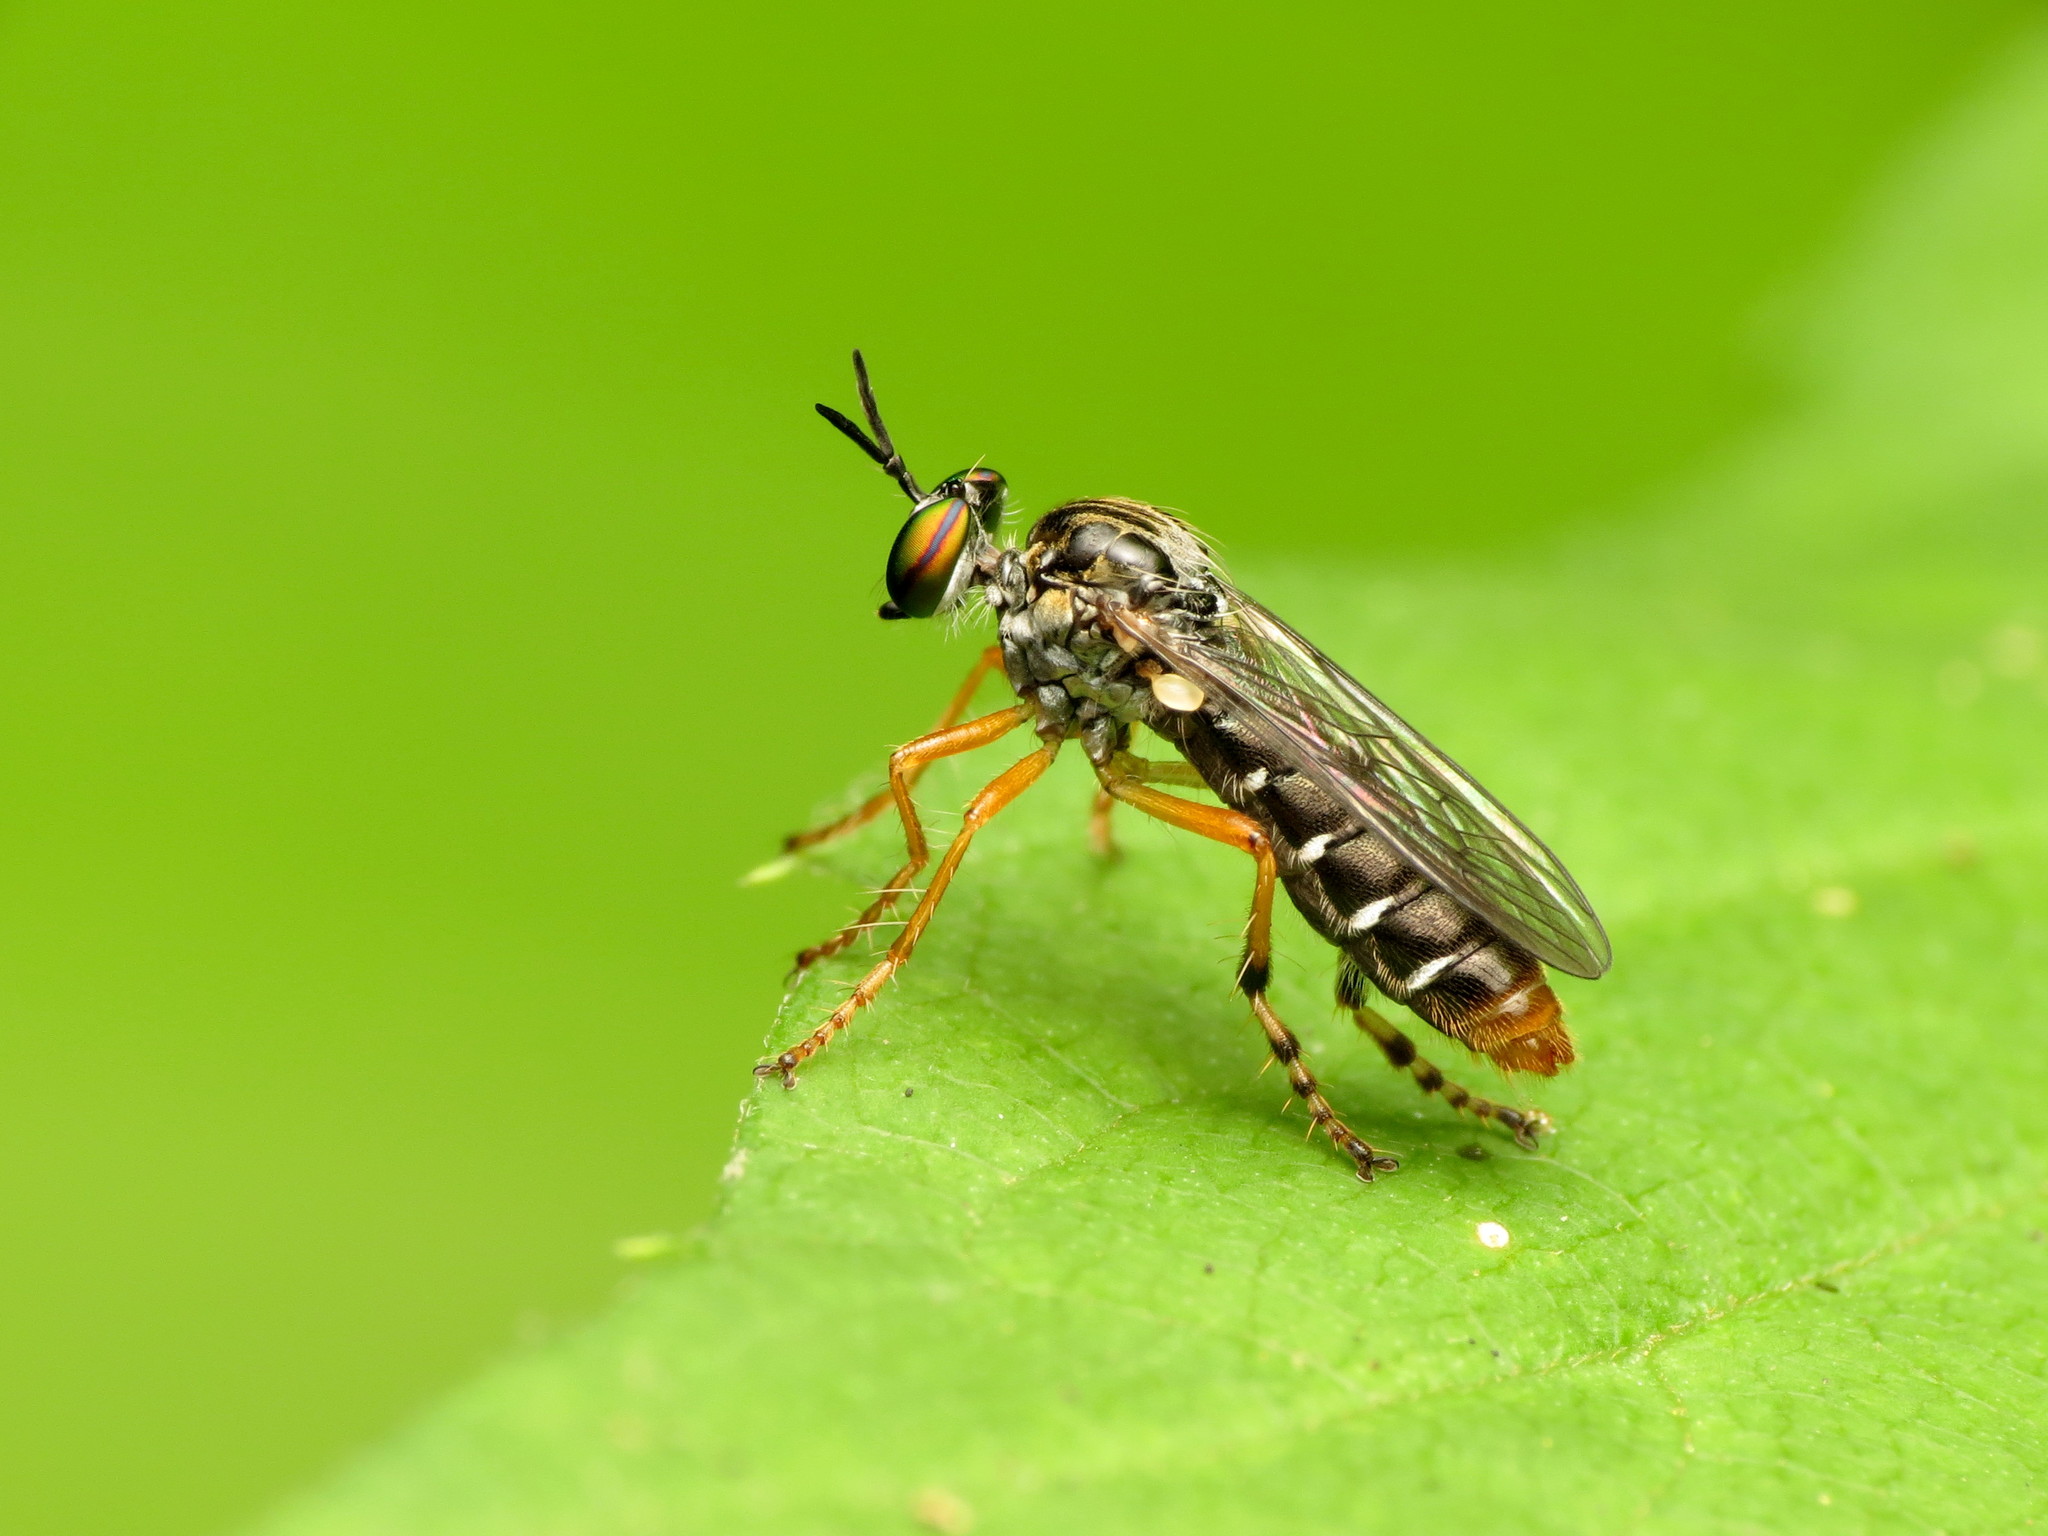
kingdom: Animalia
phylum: Arthropoda
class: Insecta
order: Diptera
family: Asilidae
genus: Taracticus
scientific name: Taracticus octopunctatus
